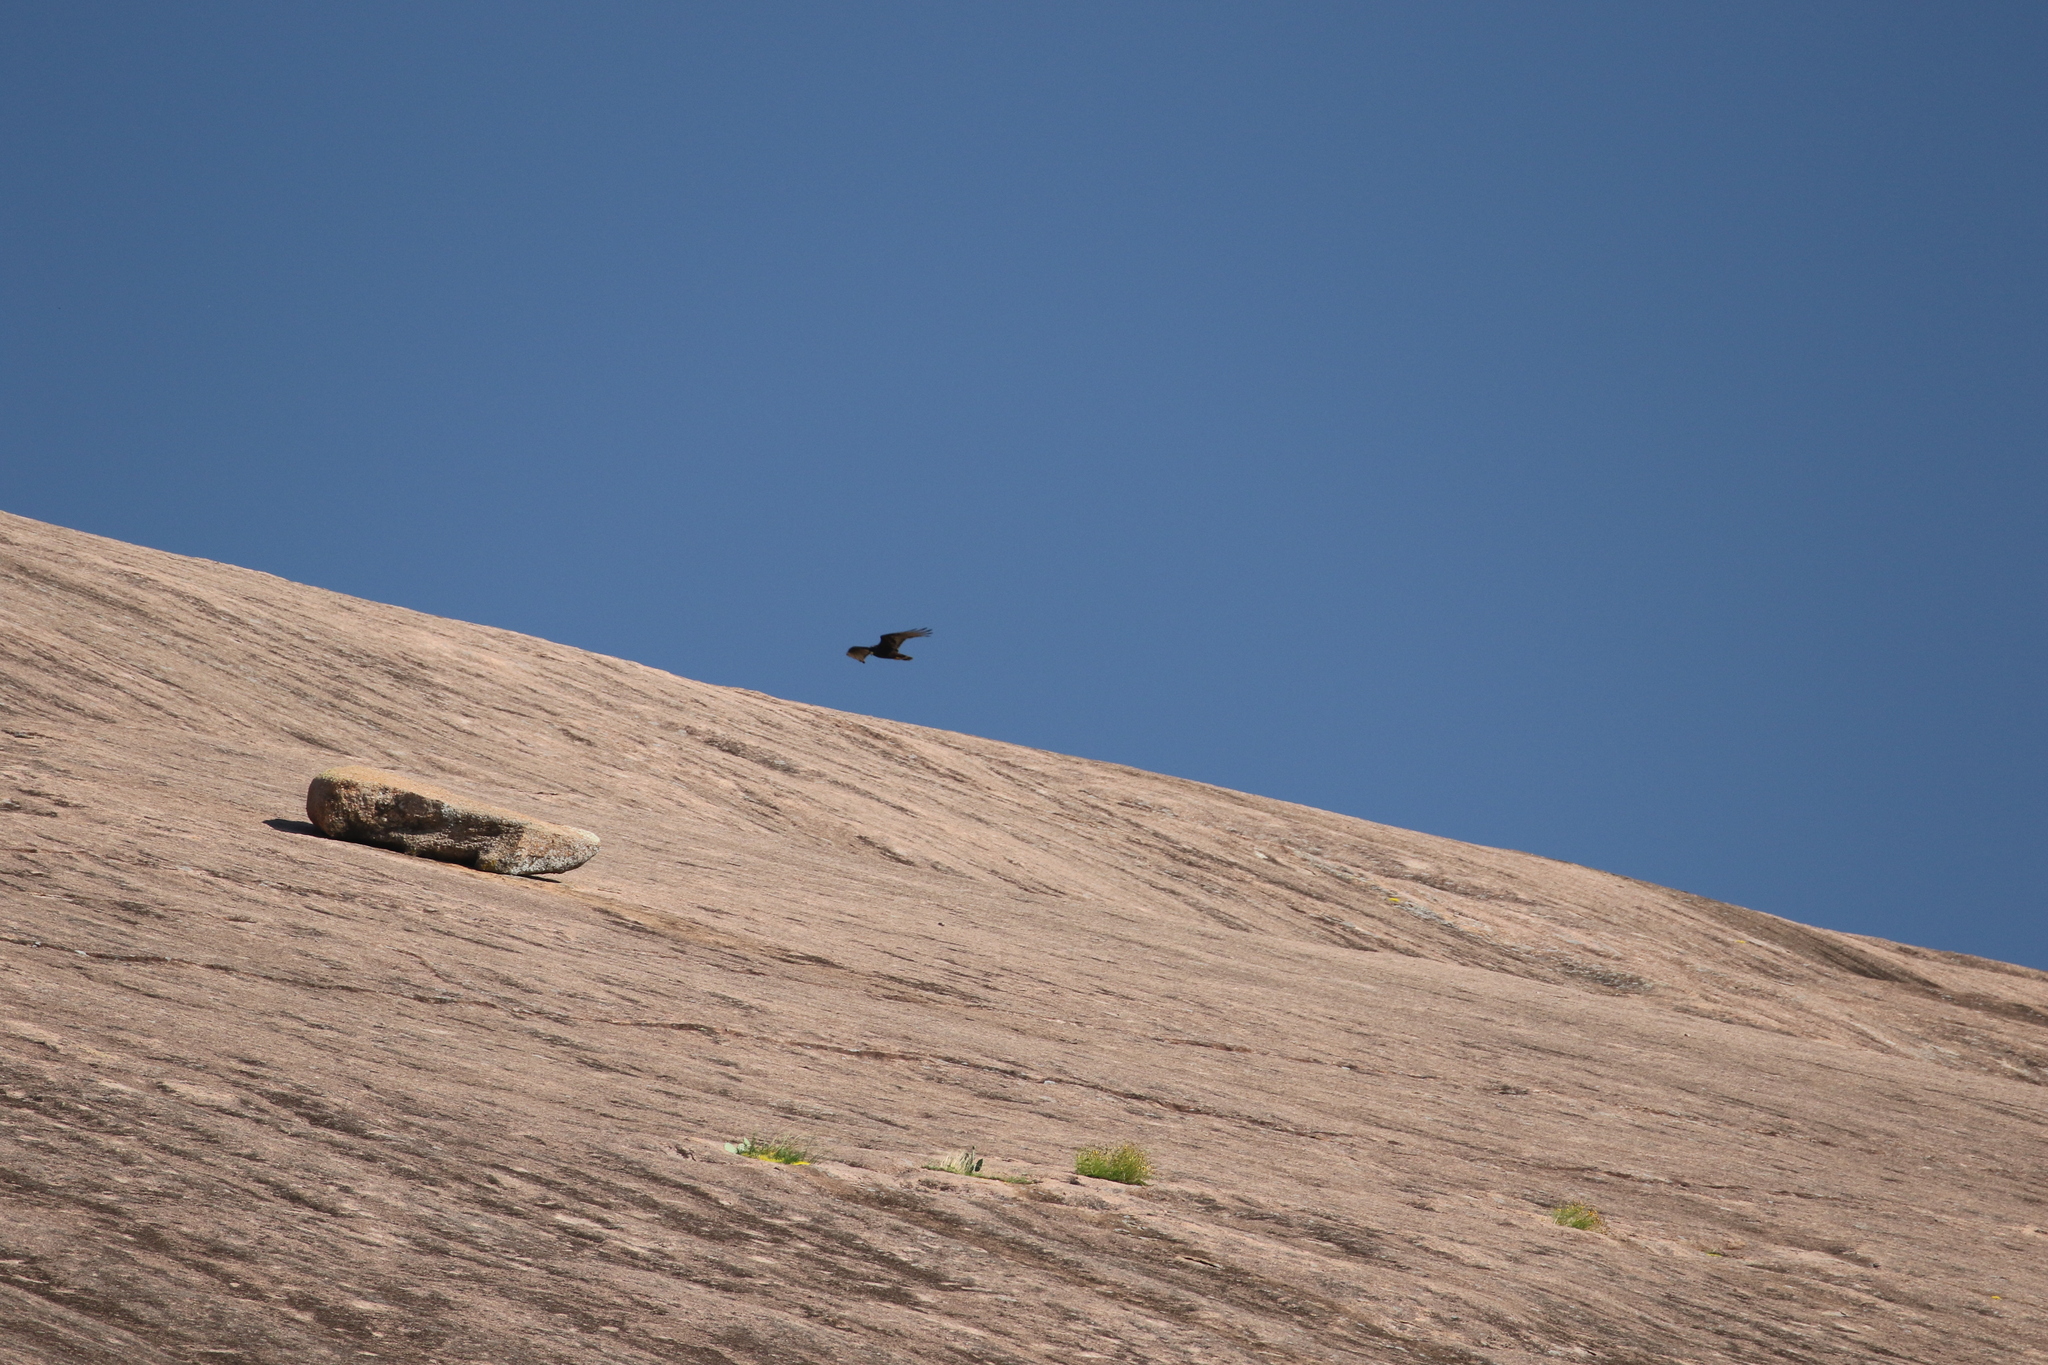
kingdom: Animalia
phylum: Chordata
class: Aves
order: Accipitriformes
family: Accipitridae
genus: Buteo
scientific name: Buteo albonotatus
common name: Zone-tailed hawk
